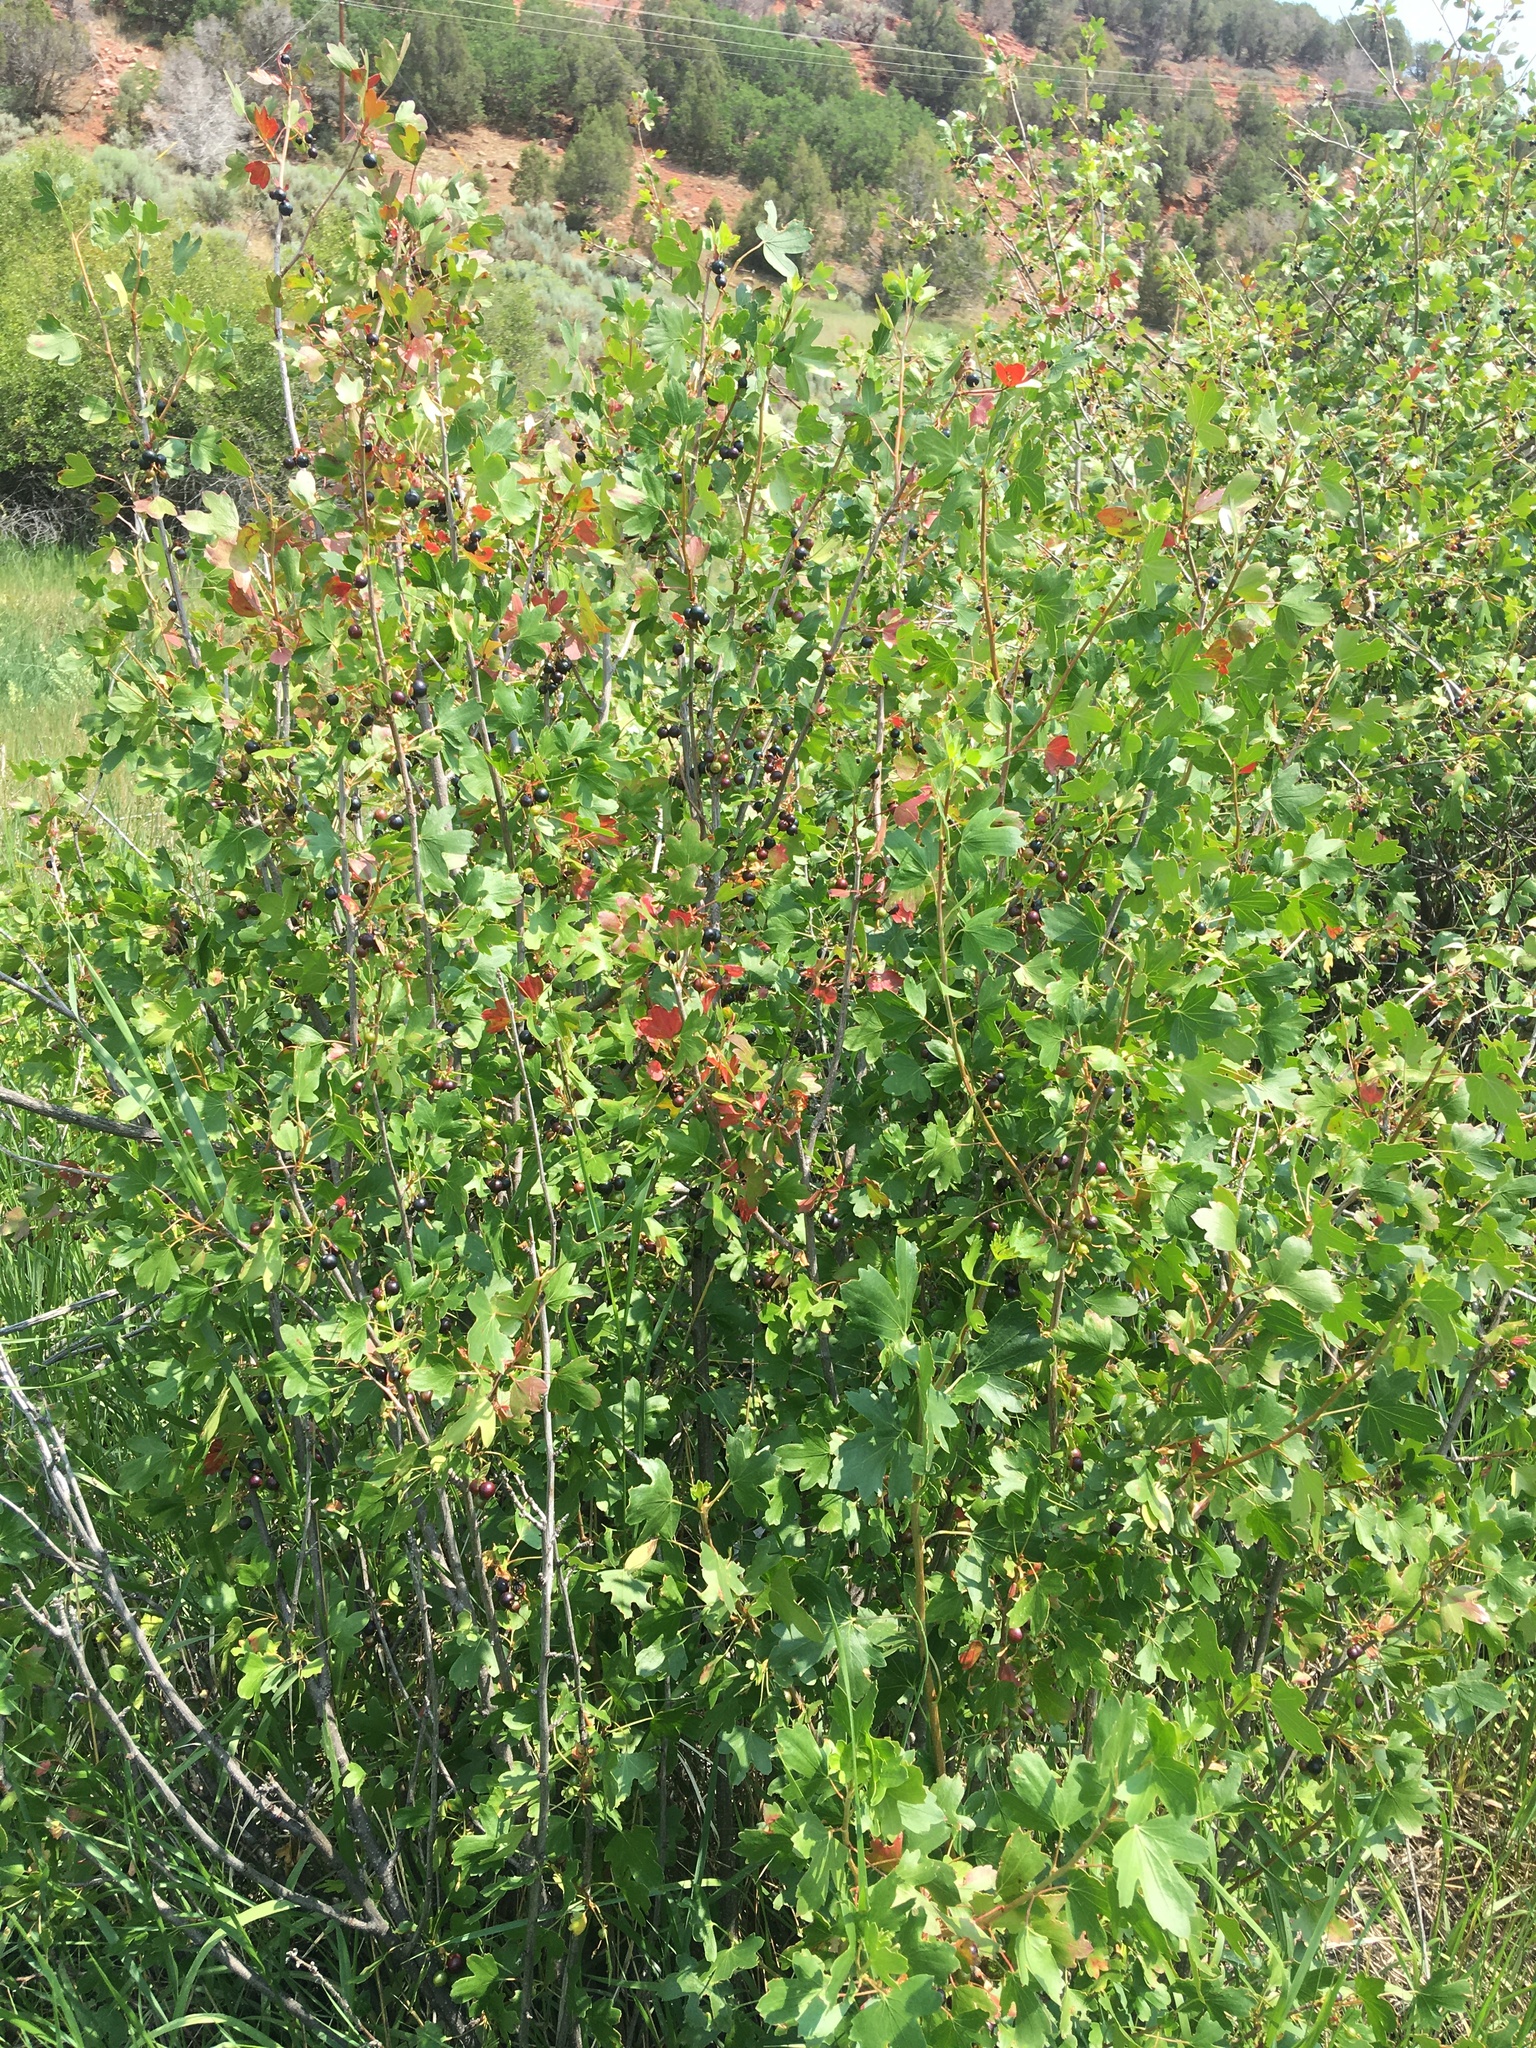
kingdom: Plantae
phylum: Tracheophyta
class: Magnoliopsida
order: Saxifragales
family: Grossulariaceae
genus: Ribes
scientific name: Ribes aureum
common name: Golden currant
